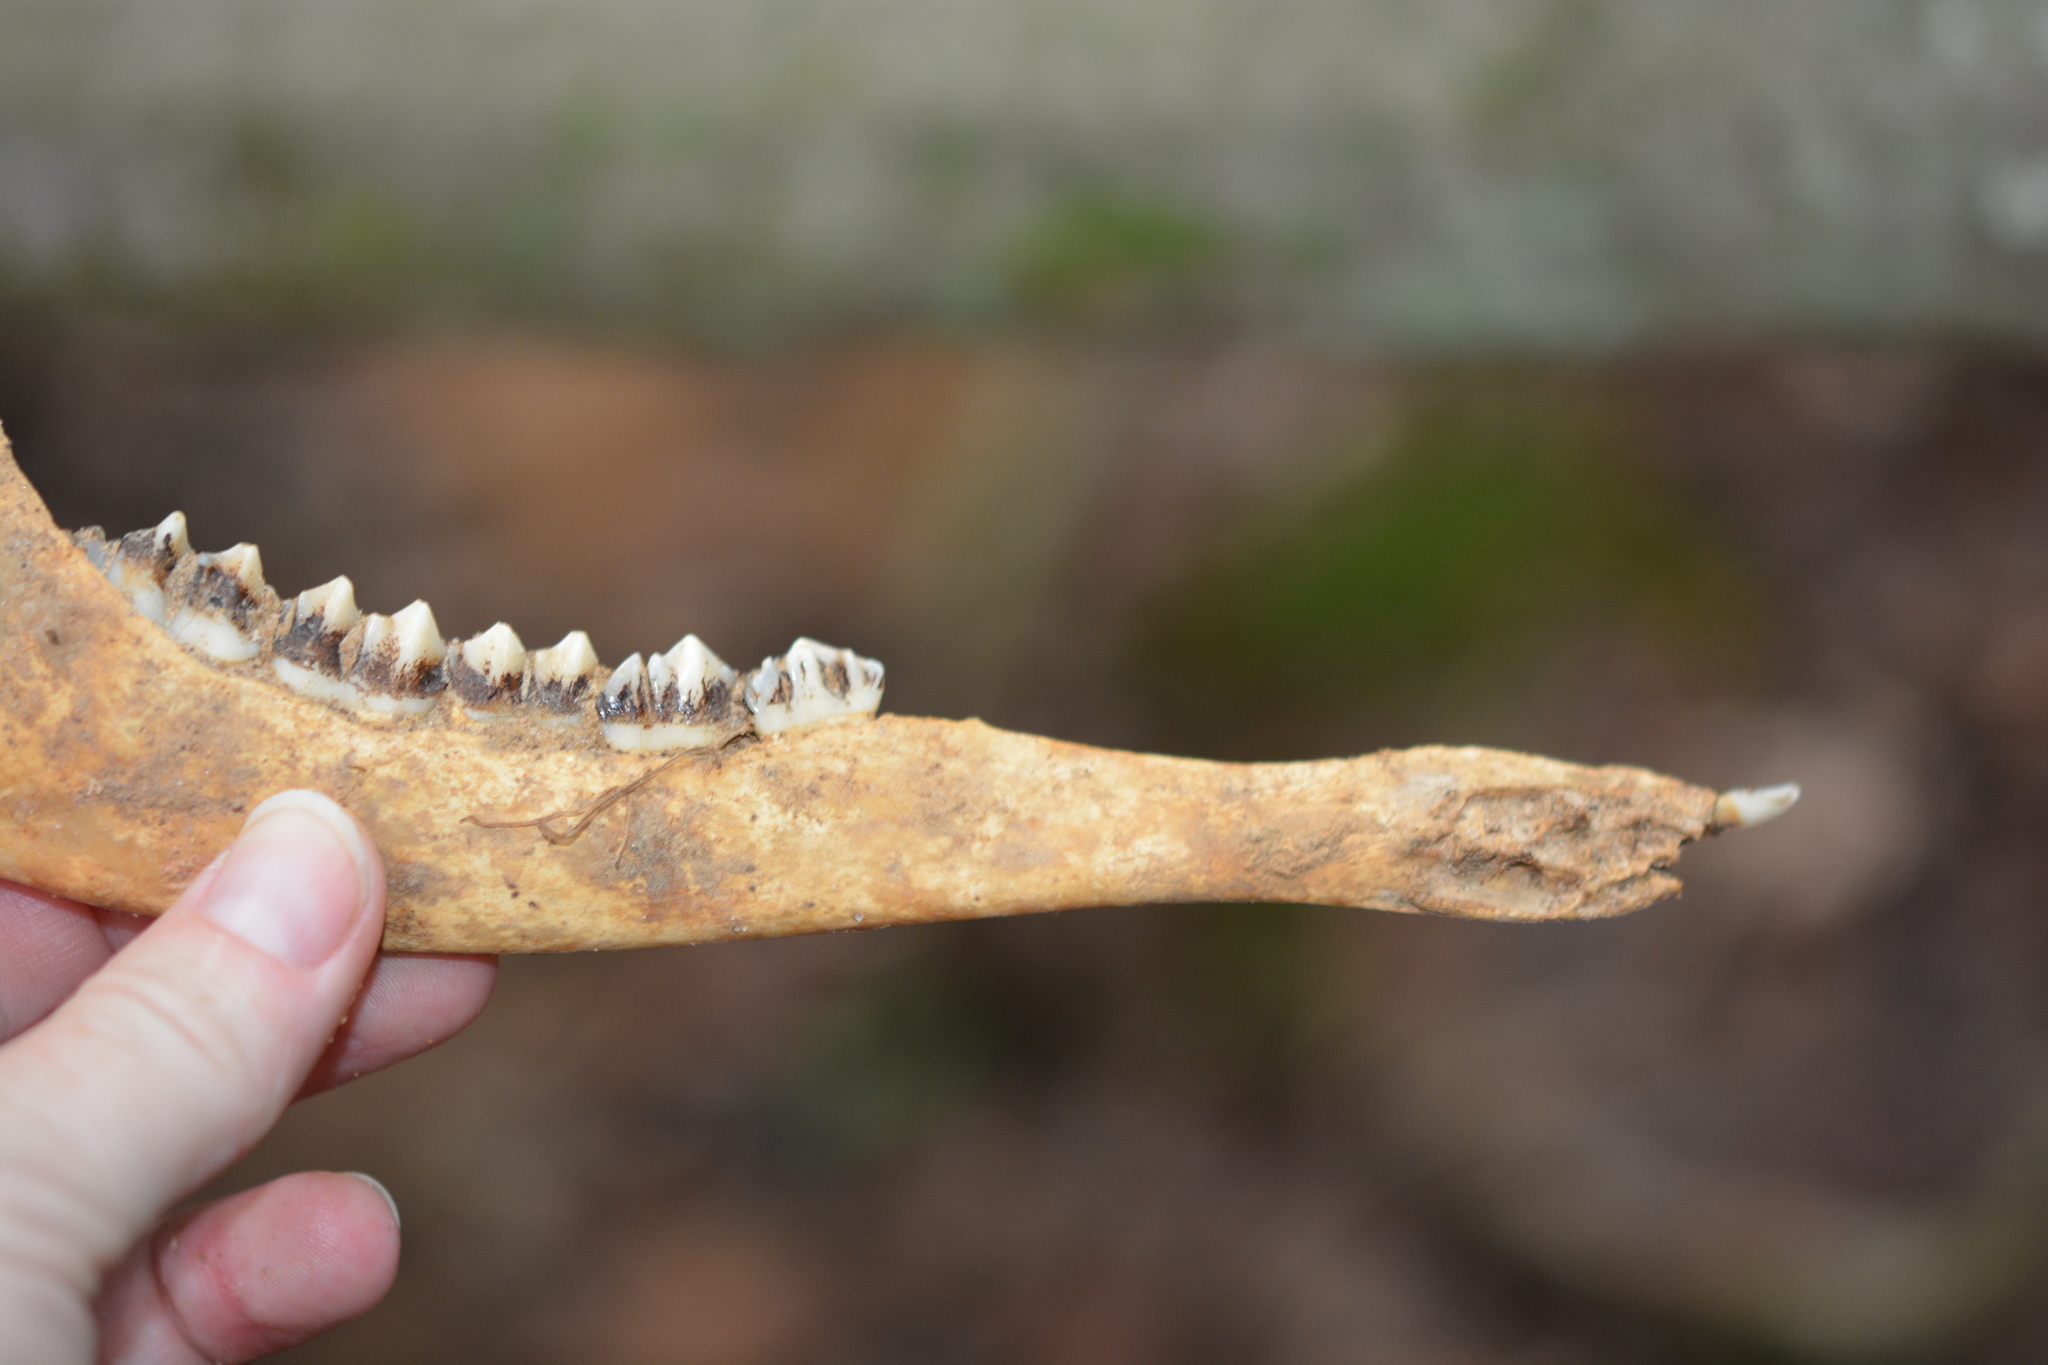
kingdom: Animalia
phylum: Chordata
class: Mammalia
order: Artiodactyla
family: Cervidae
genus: Odocoileus
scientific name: Odocoileus virginianus
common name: White-tailed deer
